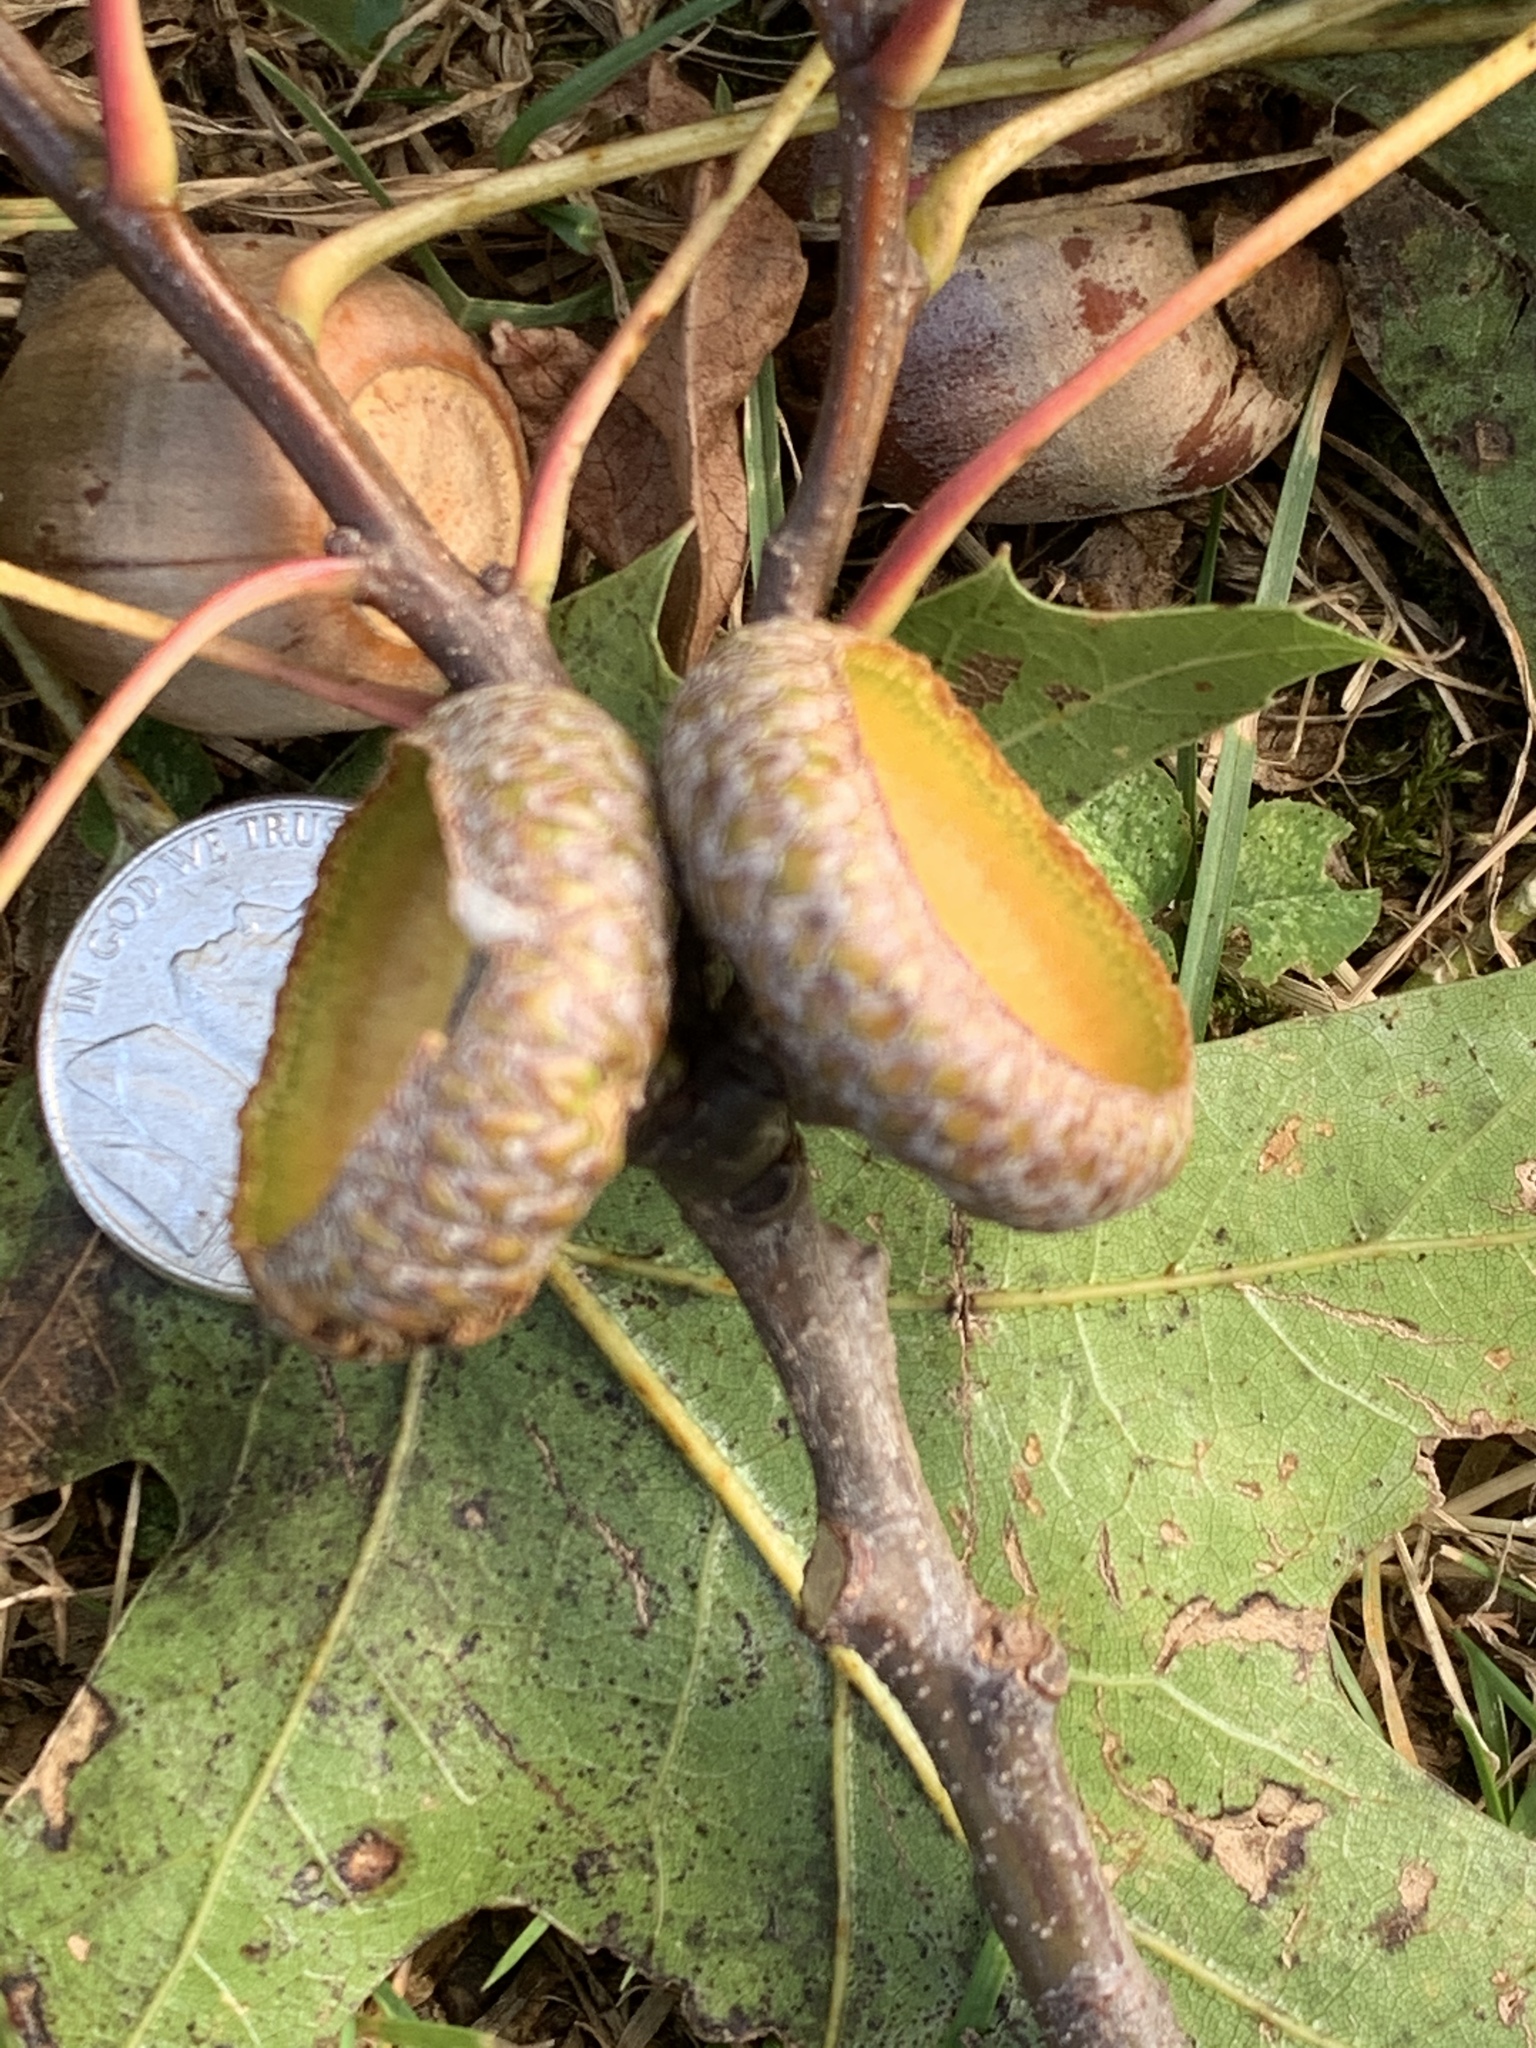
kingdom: Plantae
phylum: Tracheophyta
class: Magnoliopsida
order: Fagales
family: Fagaceae
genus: Quercus
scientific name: Quercus rubra
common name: Red oak
